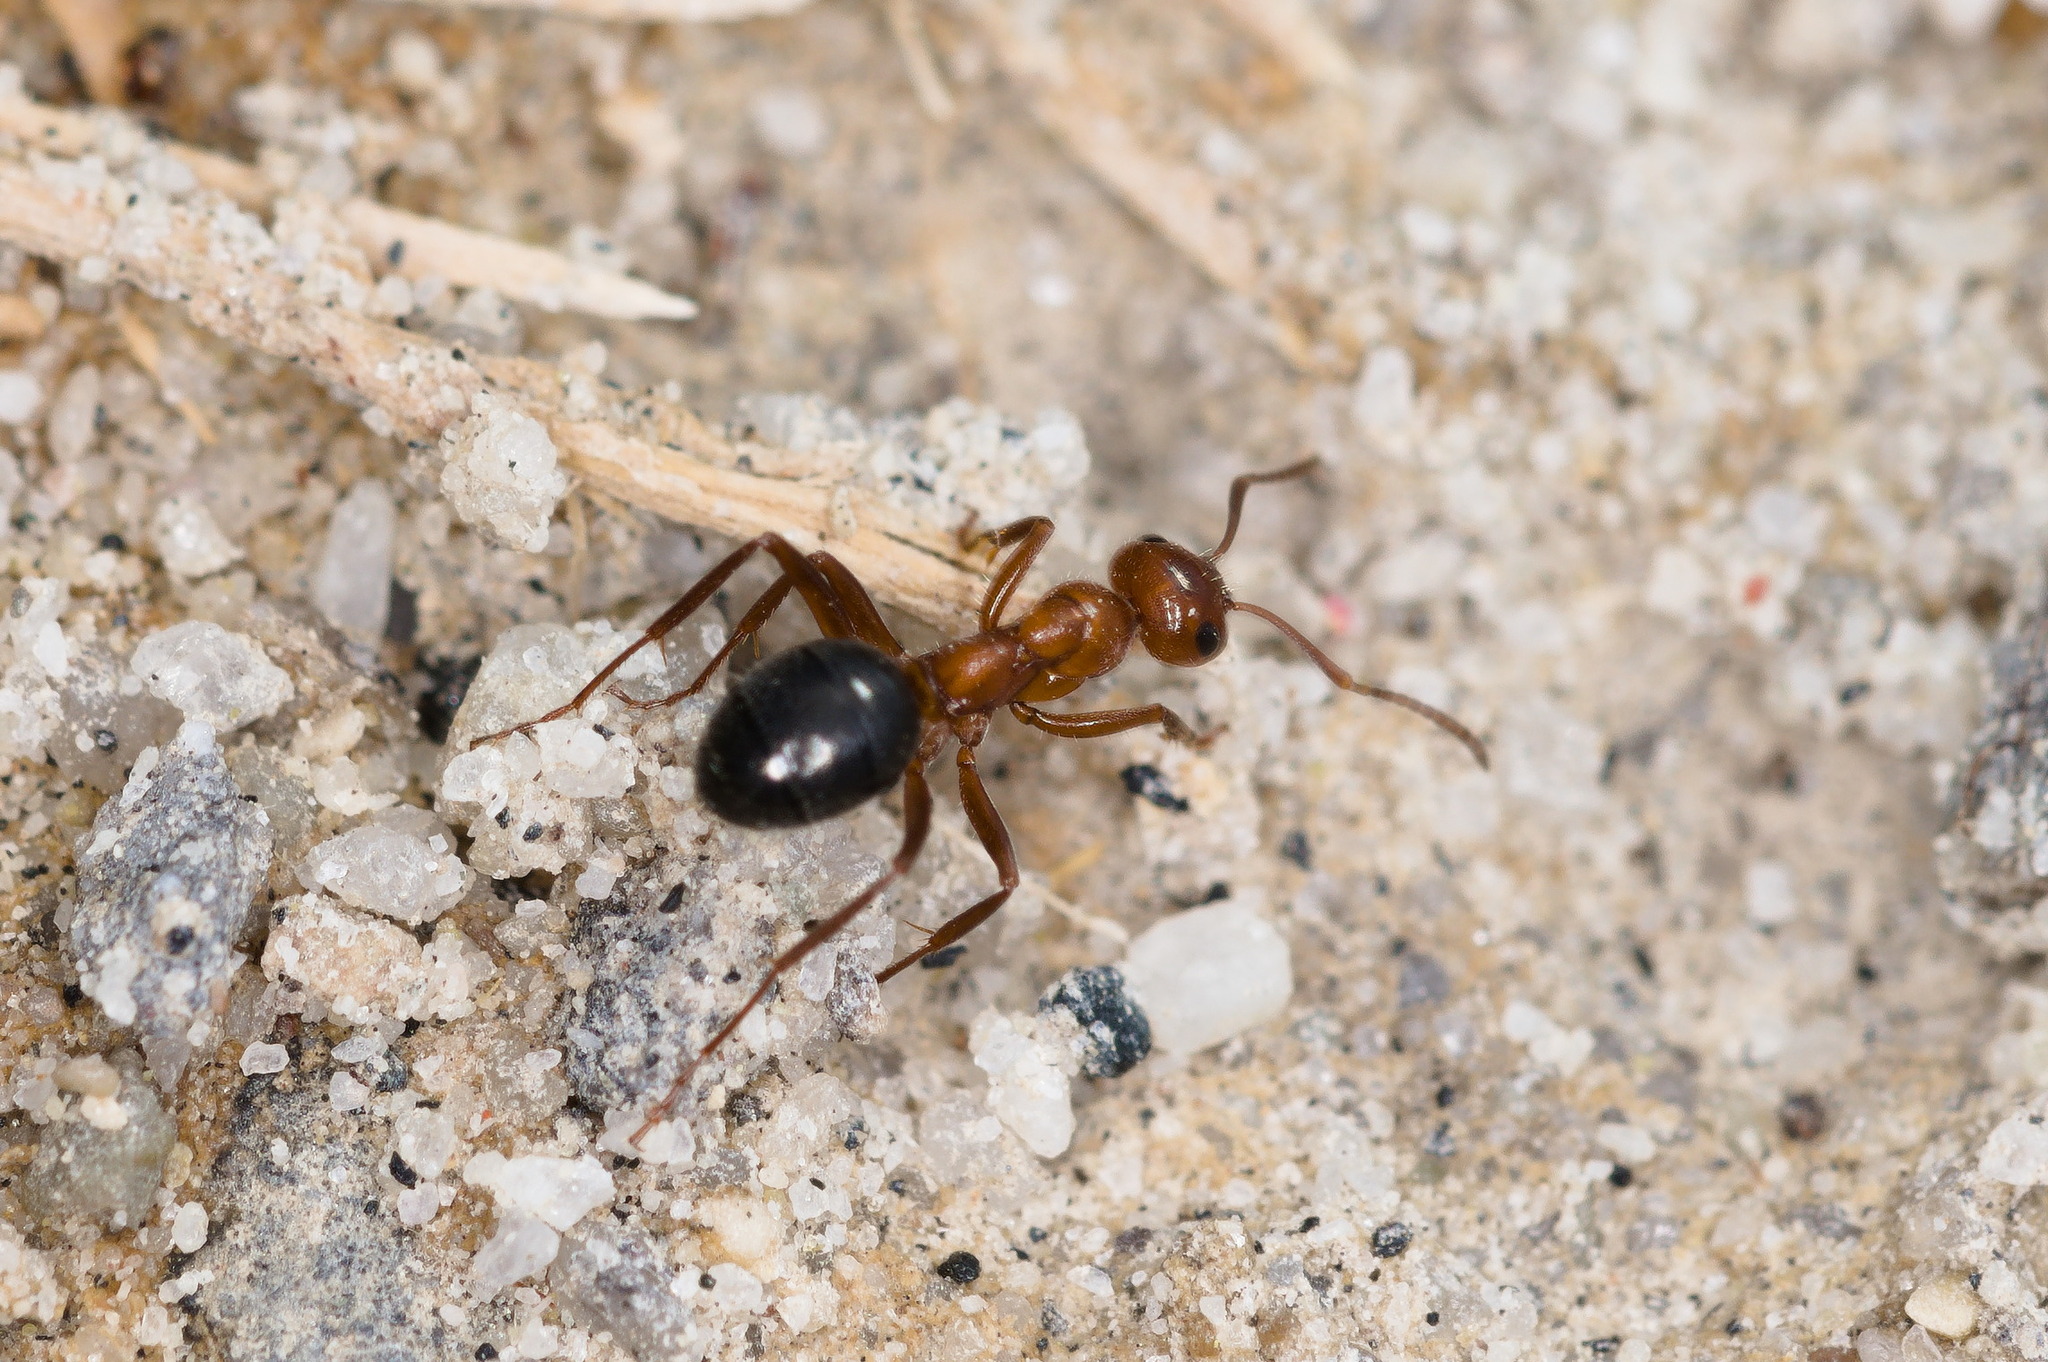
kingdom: Animalia
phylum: Arthropoda
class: Insecta
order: Hymenoptera
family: Formicidae
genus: Formica
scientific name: Formica perpilosa
